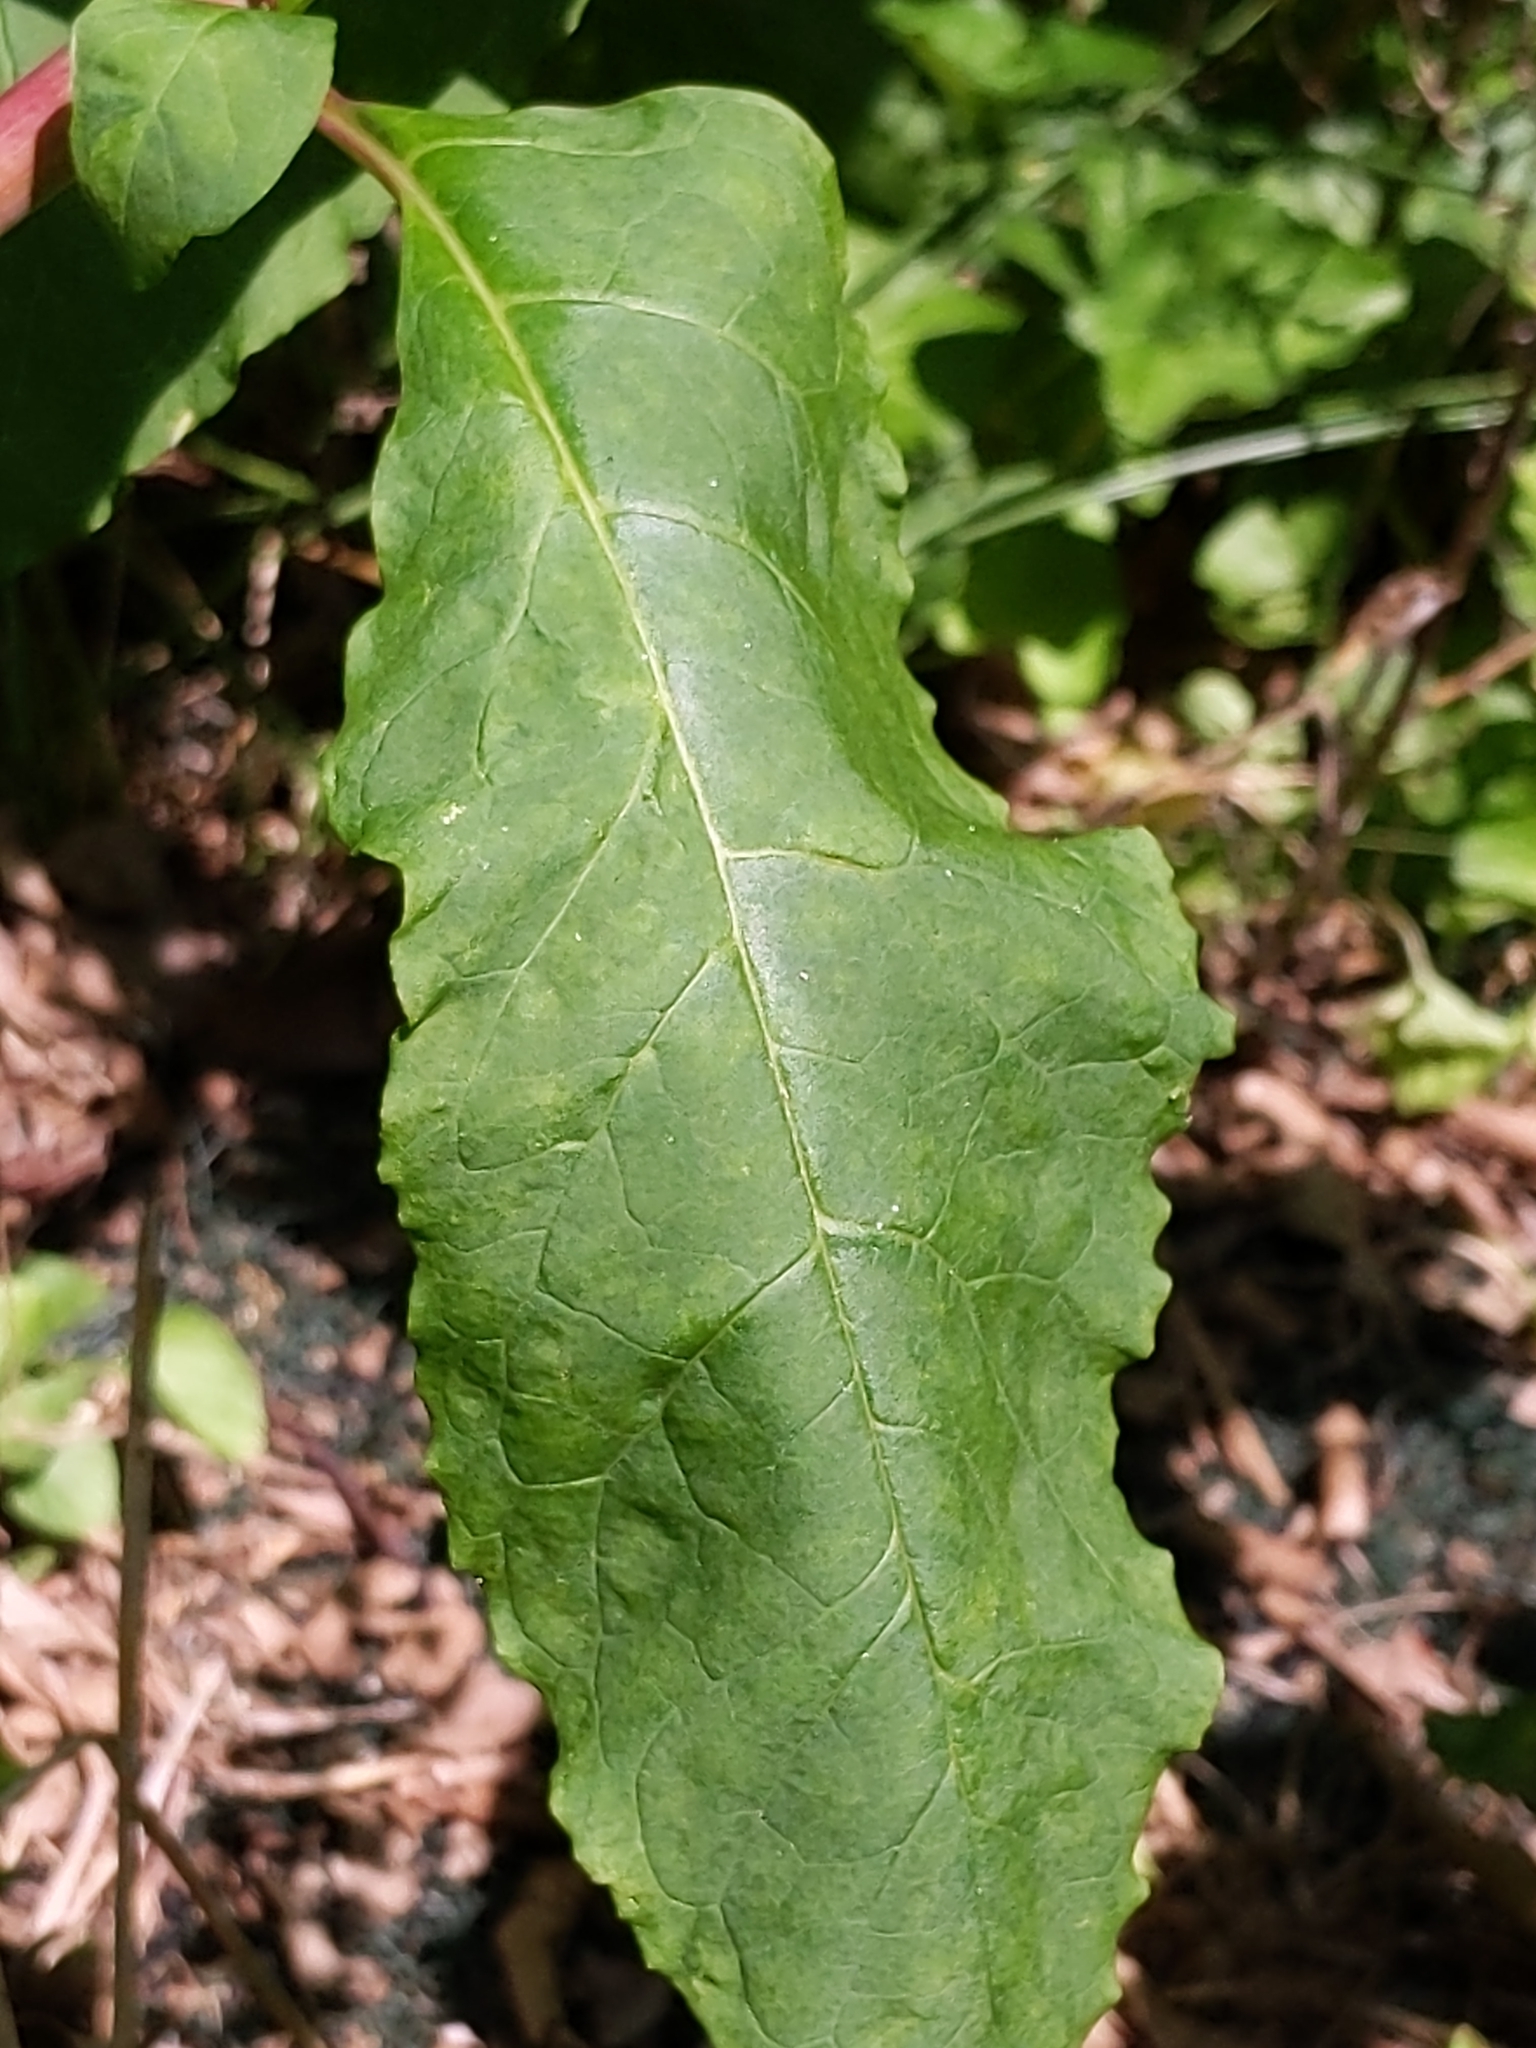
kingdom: Plantae
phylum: Tracheophyta
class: Magnoliopsida
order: Caryophyllales
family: Phytolaccaceae
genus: Phytolacca
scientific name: Phytolacca americana
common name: American pokeweed
